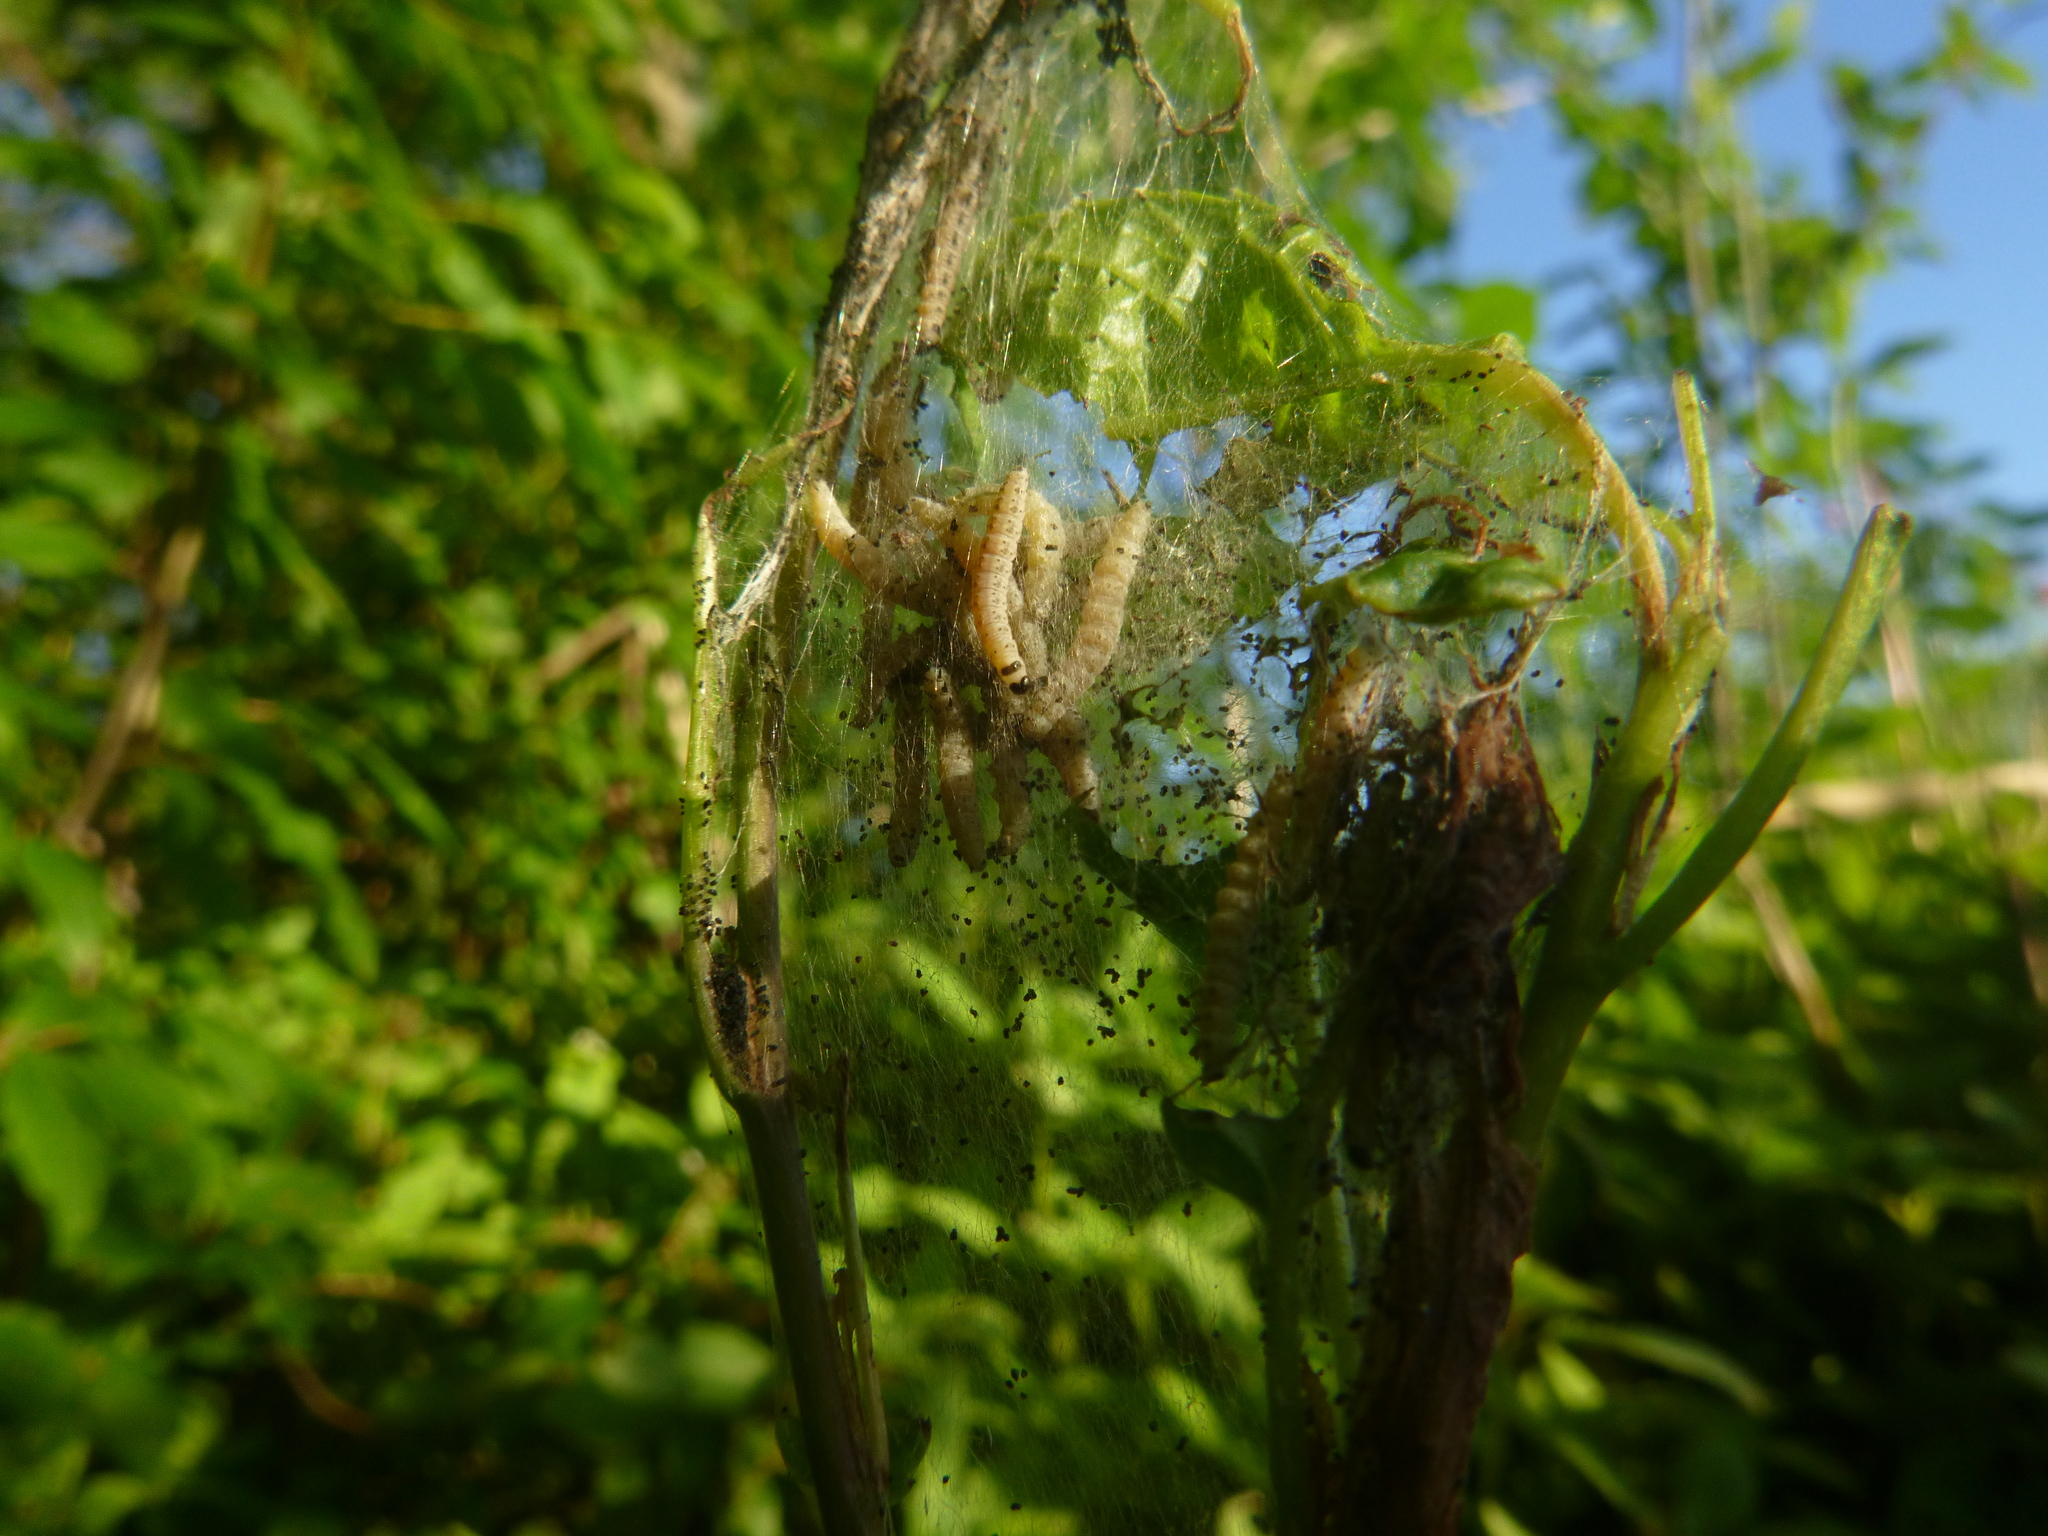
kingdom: Animalia
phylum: Arthropoda
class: Insecta
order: Lepidoptera
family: Yponomeutidae
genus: Yponomeuta
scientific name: Yponomeuta evonymella
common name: Bird-cherry ermine
